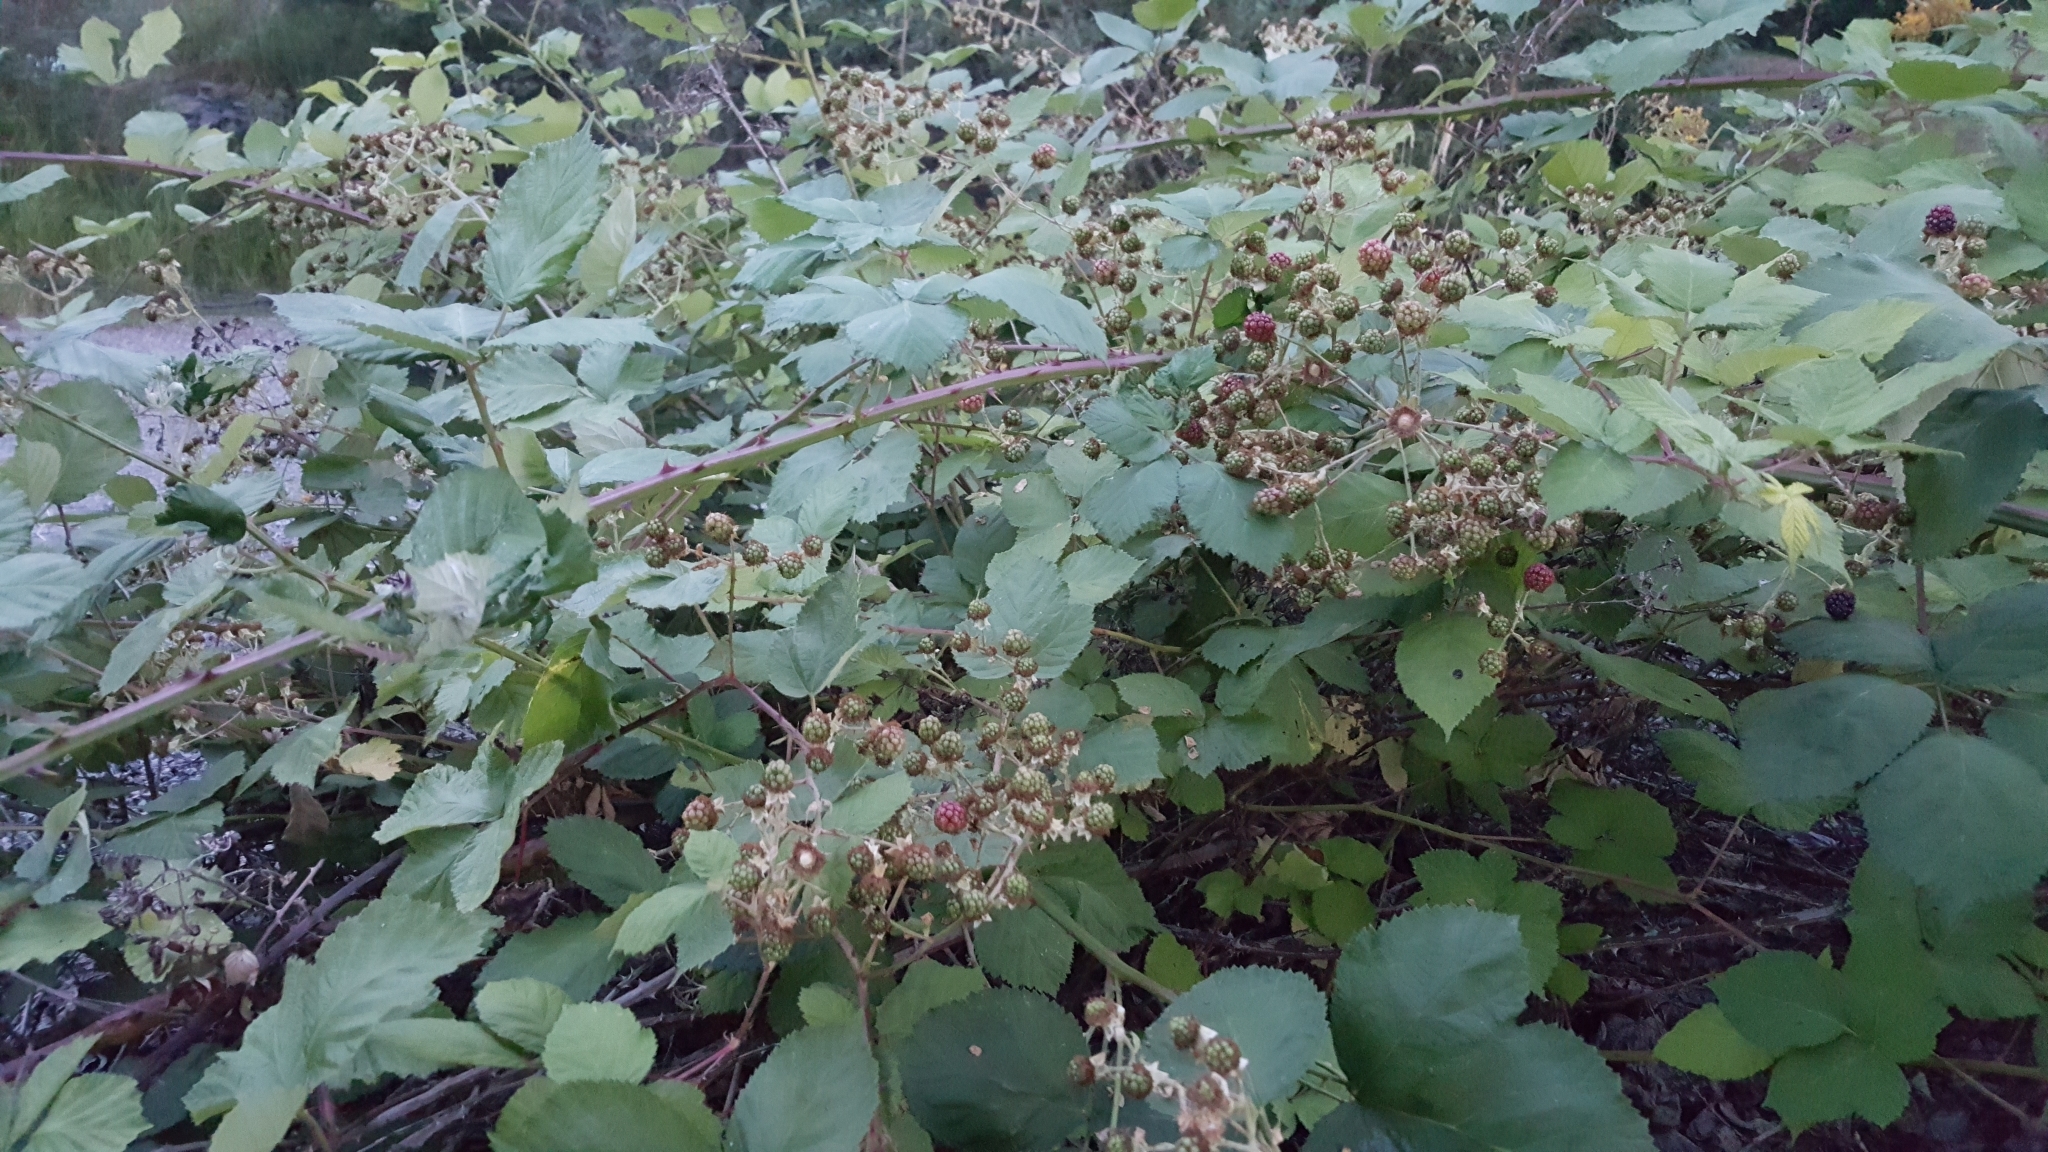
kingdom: Plantae
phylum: Tracheophyta
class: Magnoliopsida
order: Rosales
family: Rosaceae
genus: Rubus
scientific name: Rubus bifrons
